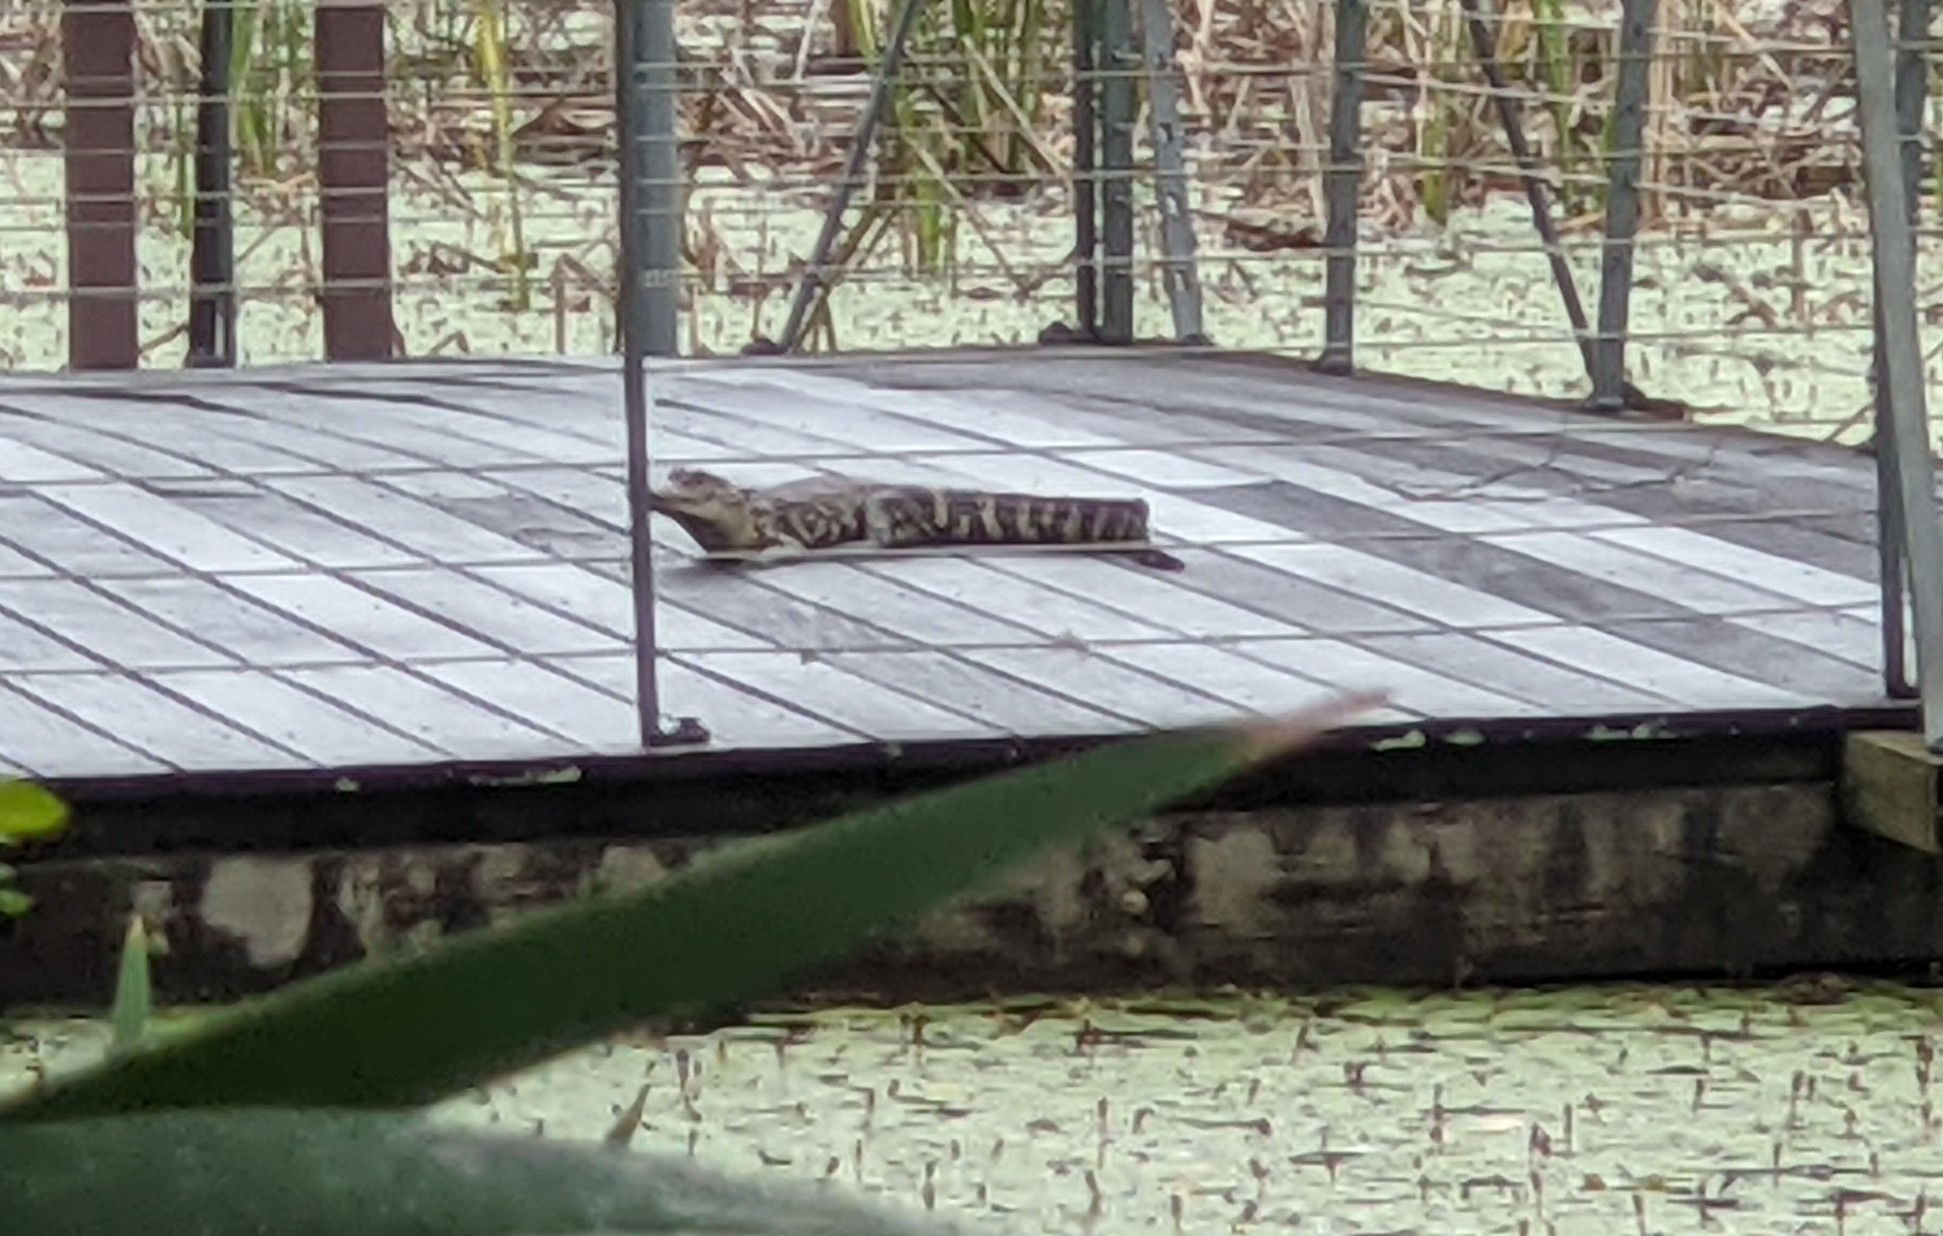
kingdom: Animalia
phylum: Chordata
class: Crocodylia
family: Alligatoridae
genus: Alligator
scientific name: Alligator mississippiensis
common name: American alligator
